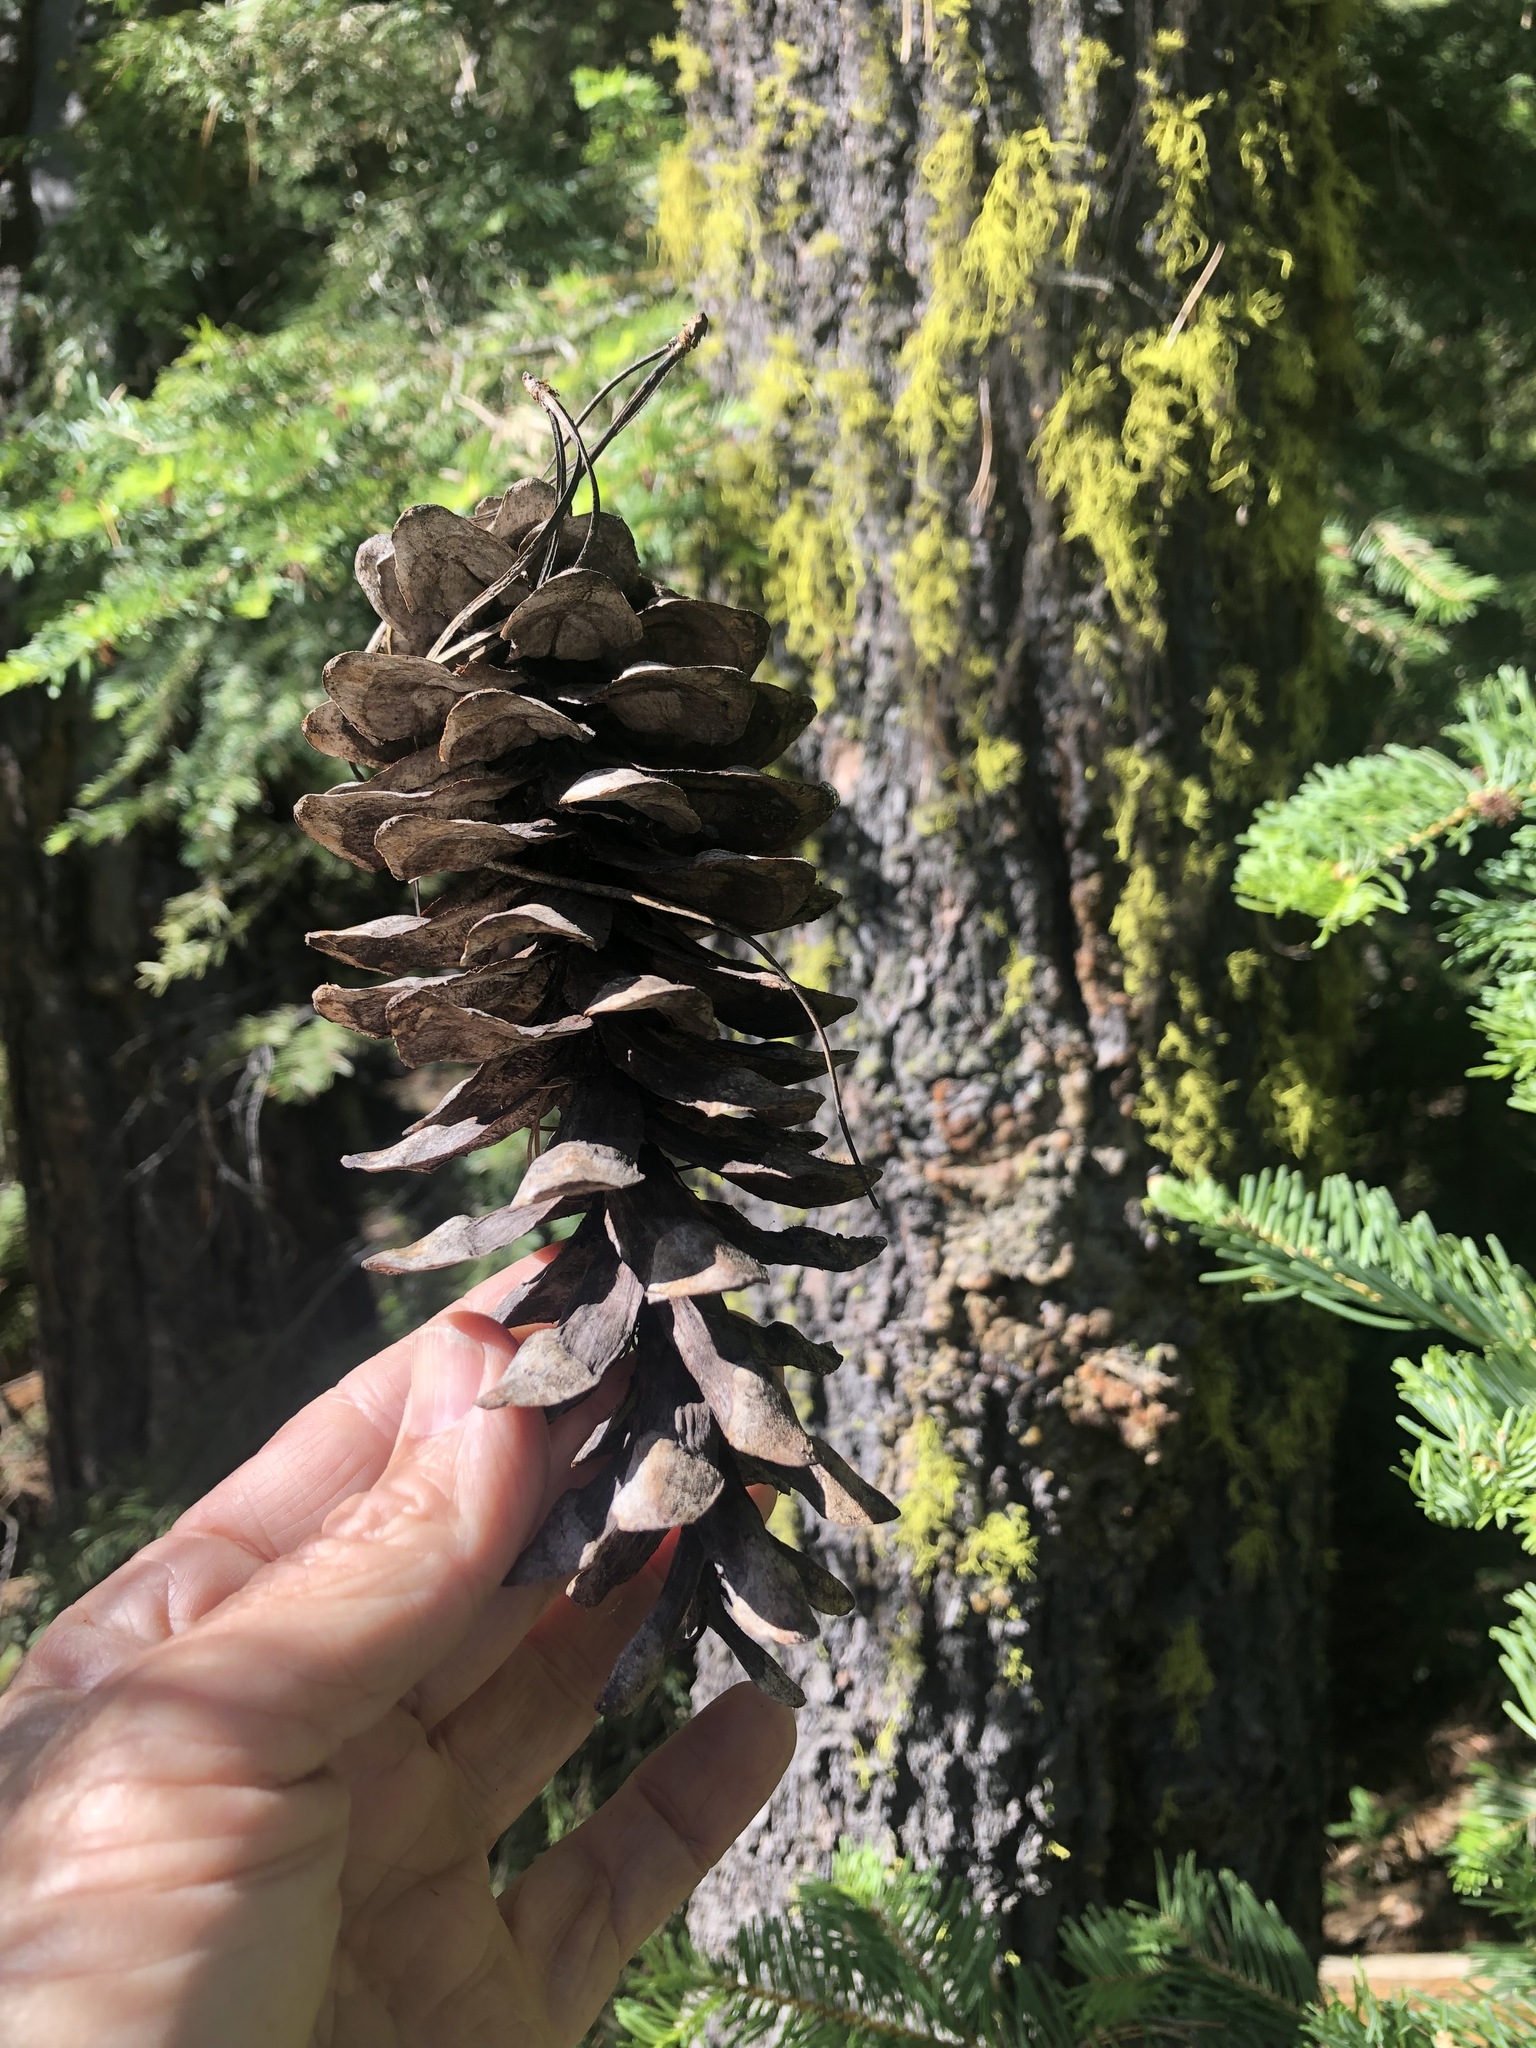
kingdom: Plantae
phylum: Tracheophyta
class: Pinopsida
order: Pinales
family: Pinaceae
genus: Pinus
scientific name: Pinus monticola
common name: Western white pine
